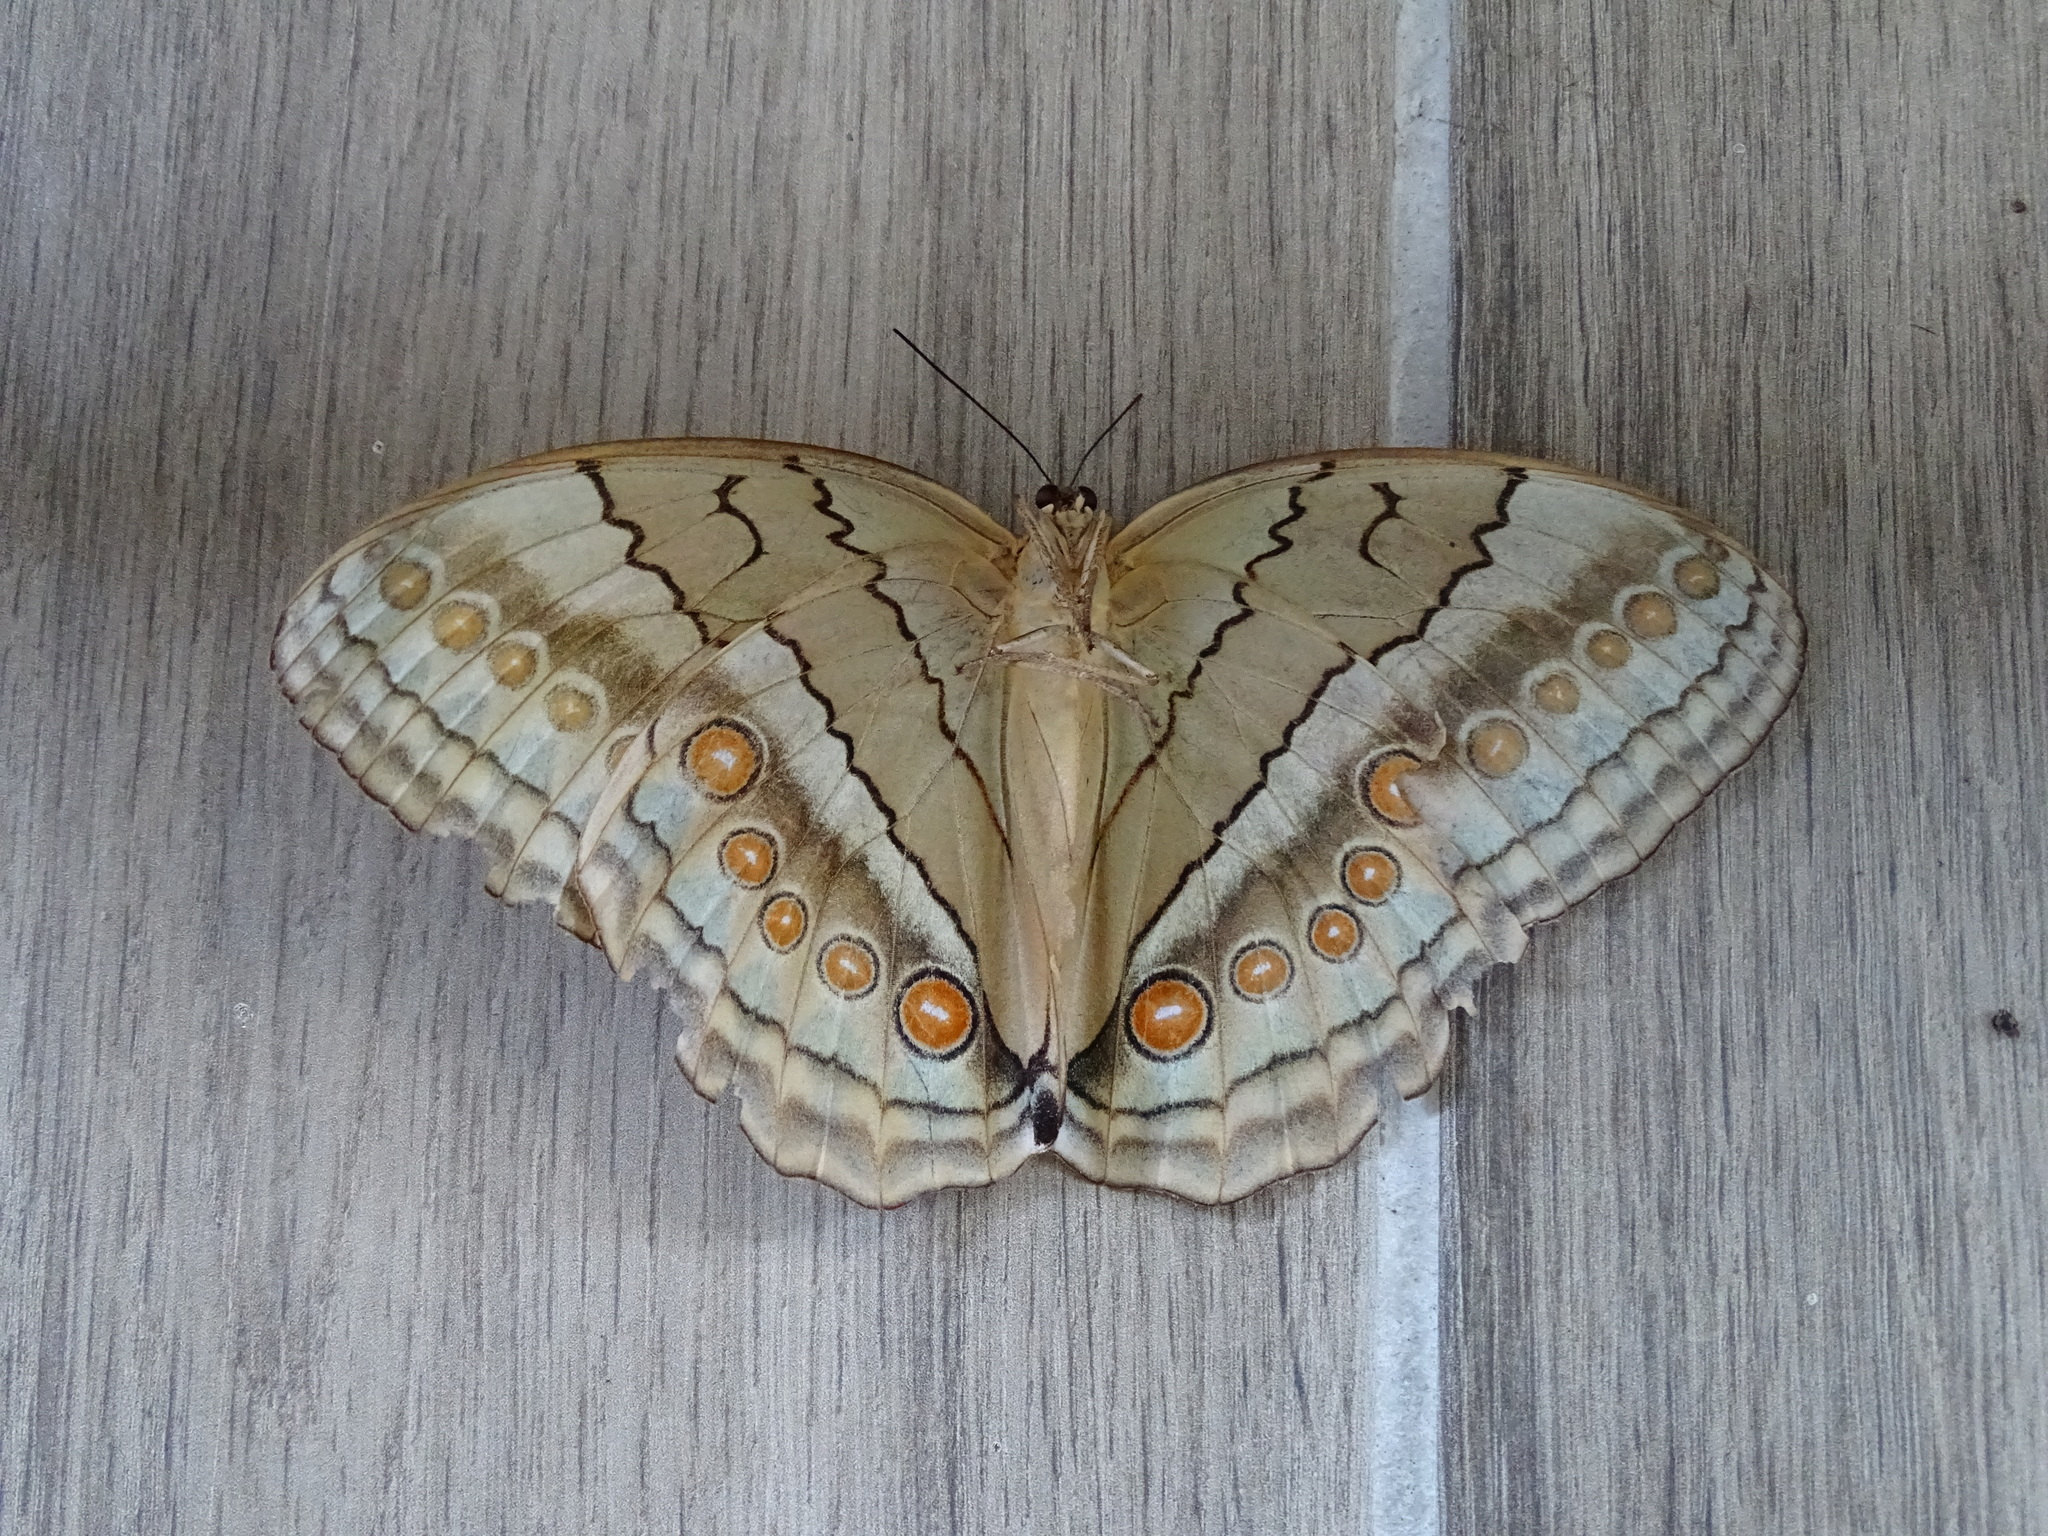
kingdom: Animalia
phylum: Arthropoda
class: Insecta
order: Lepidoptera
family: Nymphalidae
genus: Stichophthalma
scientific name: Stichophthalma howqua
